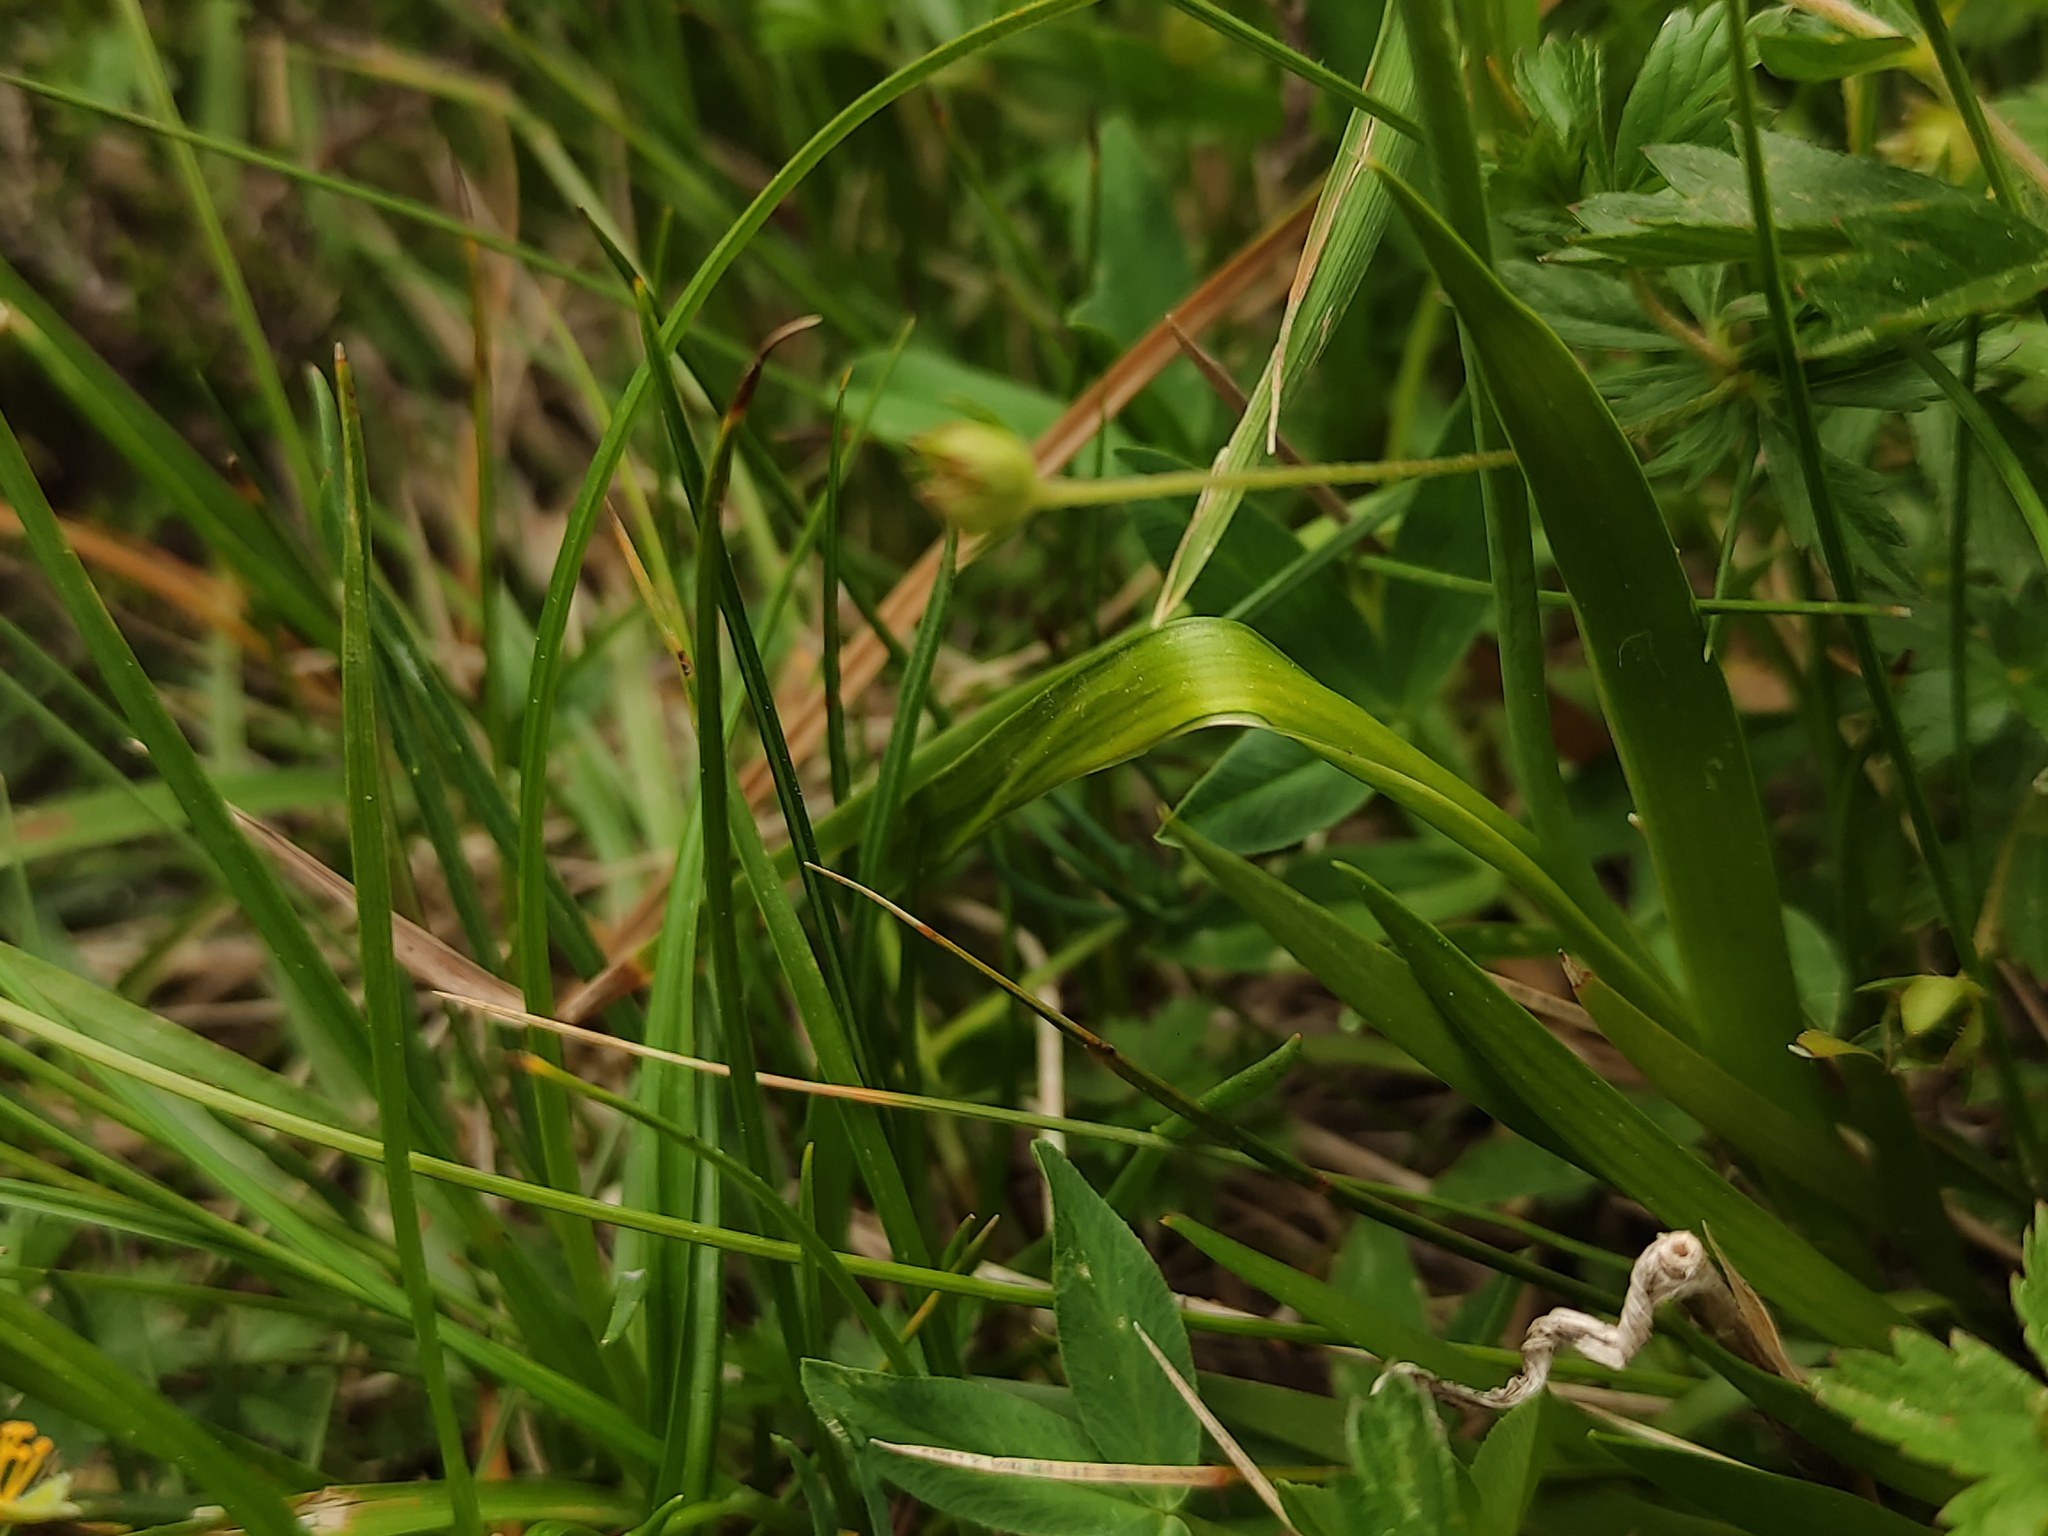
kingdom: Plantae
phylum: Tracheophyta
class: Liliopsida
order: Alismatales
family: Tofieldiaceae
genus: Tofieldia
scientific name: Tofieldia calyculata
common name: German-asphodel
